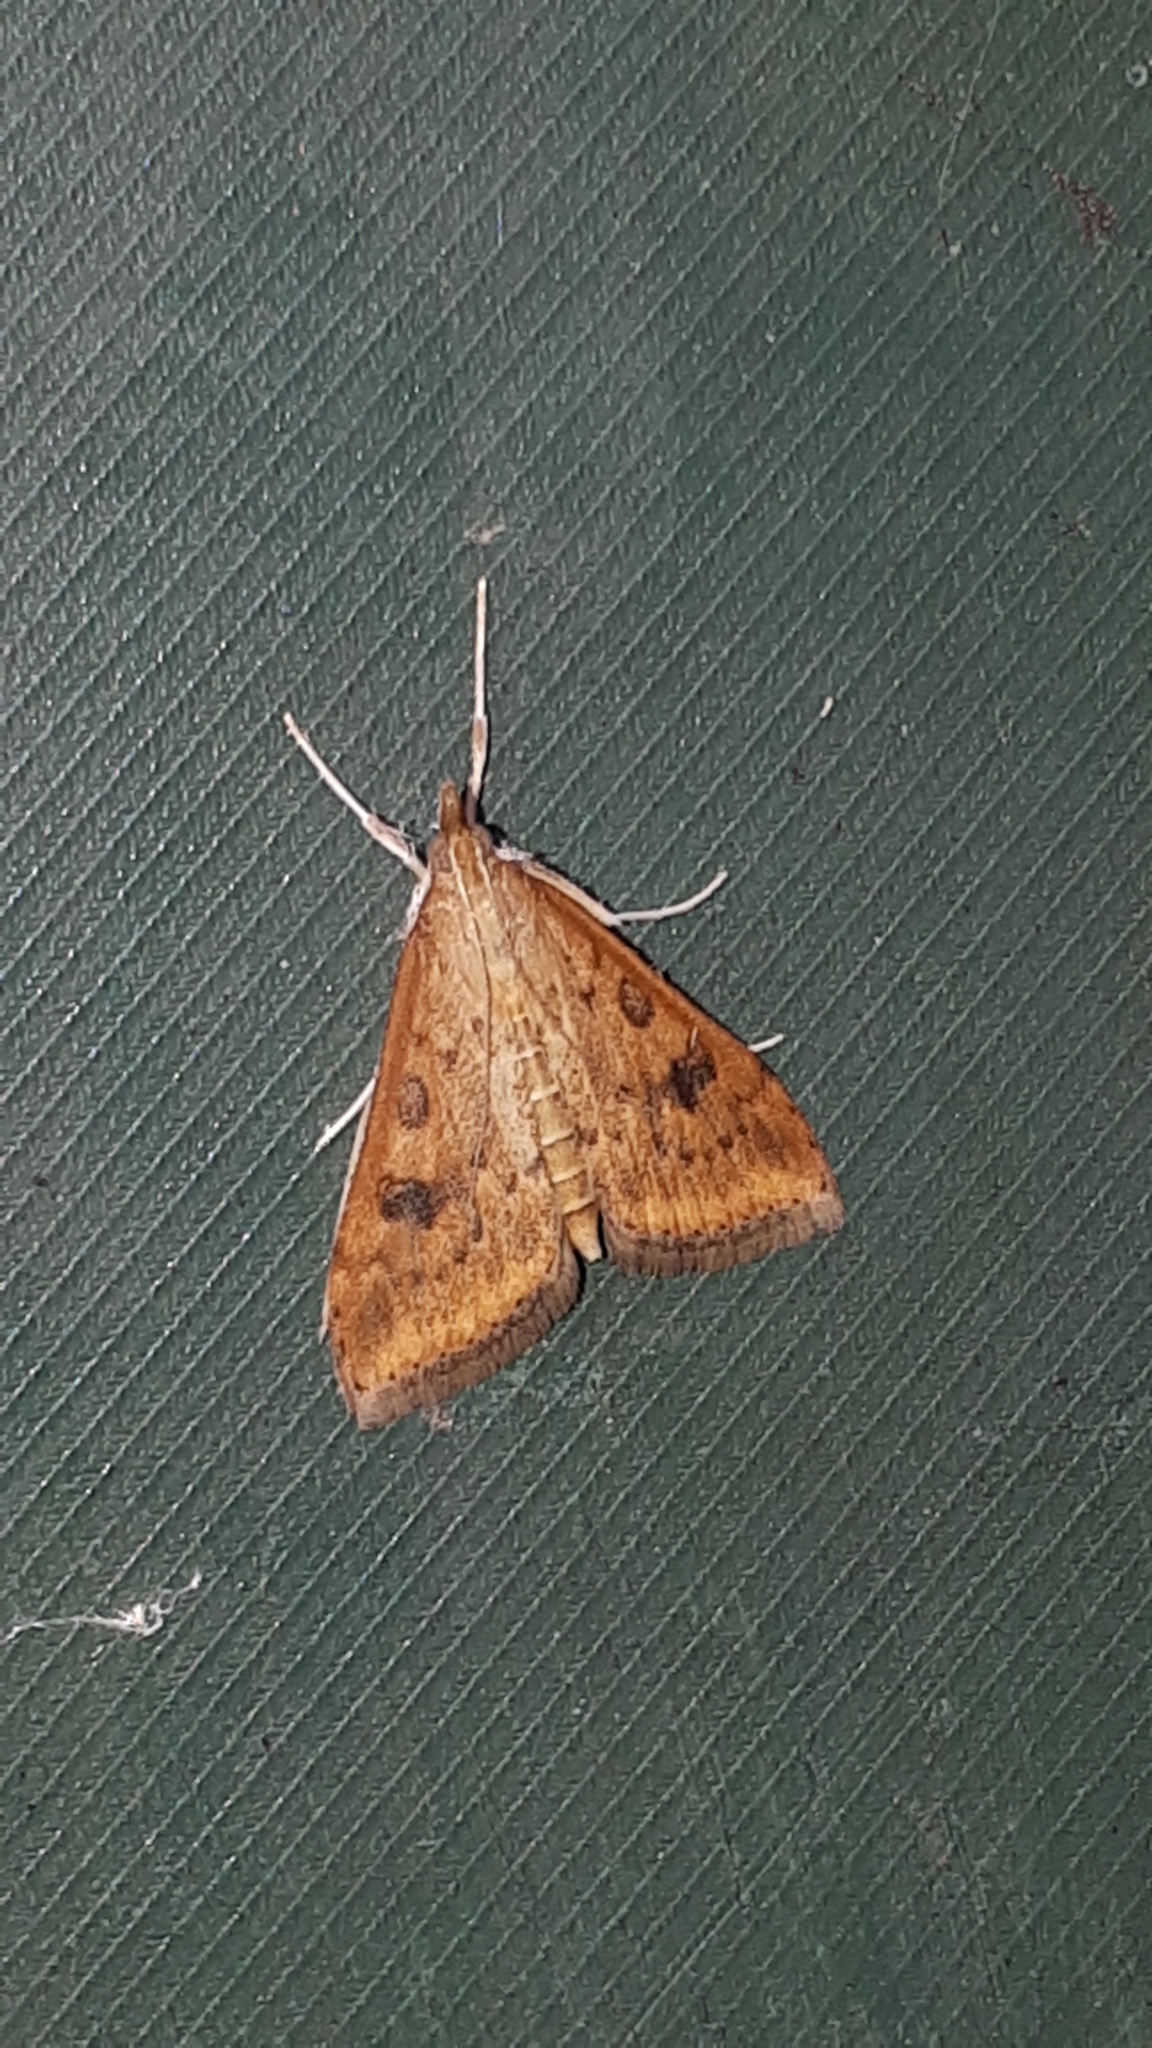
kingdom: Animalia
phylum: Arthropoda
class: Insecta
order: Lepidoptera
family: Crambidae
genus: Udea
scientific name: Udea ferrugalis
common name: Rusty dot
